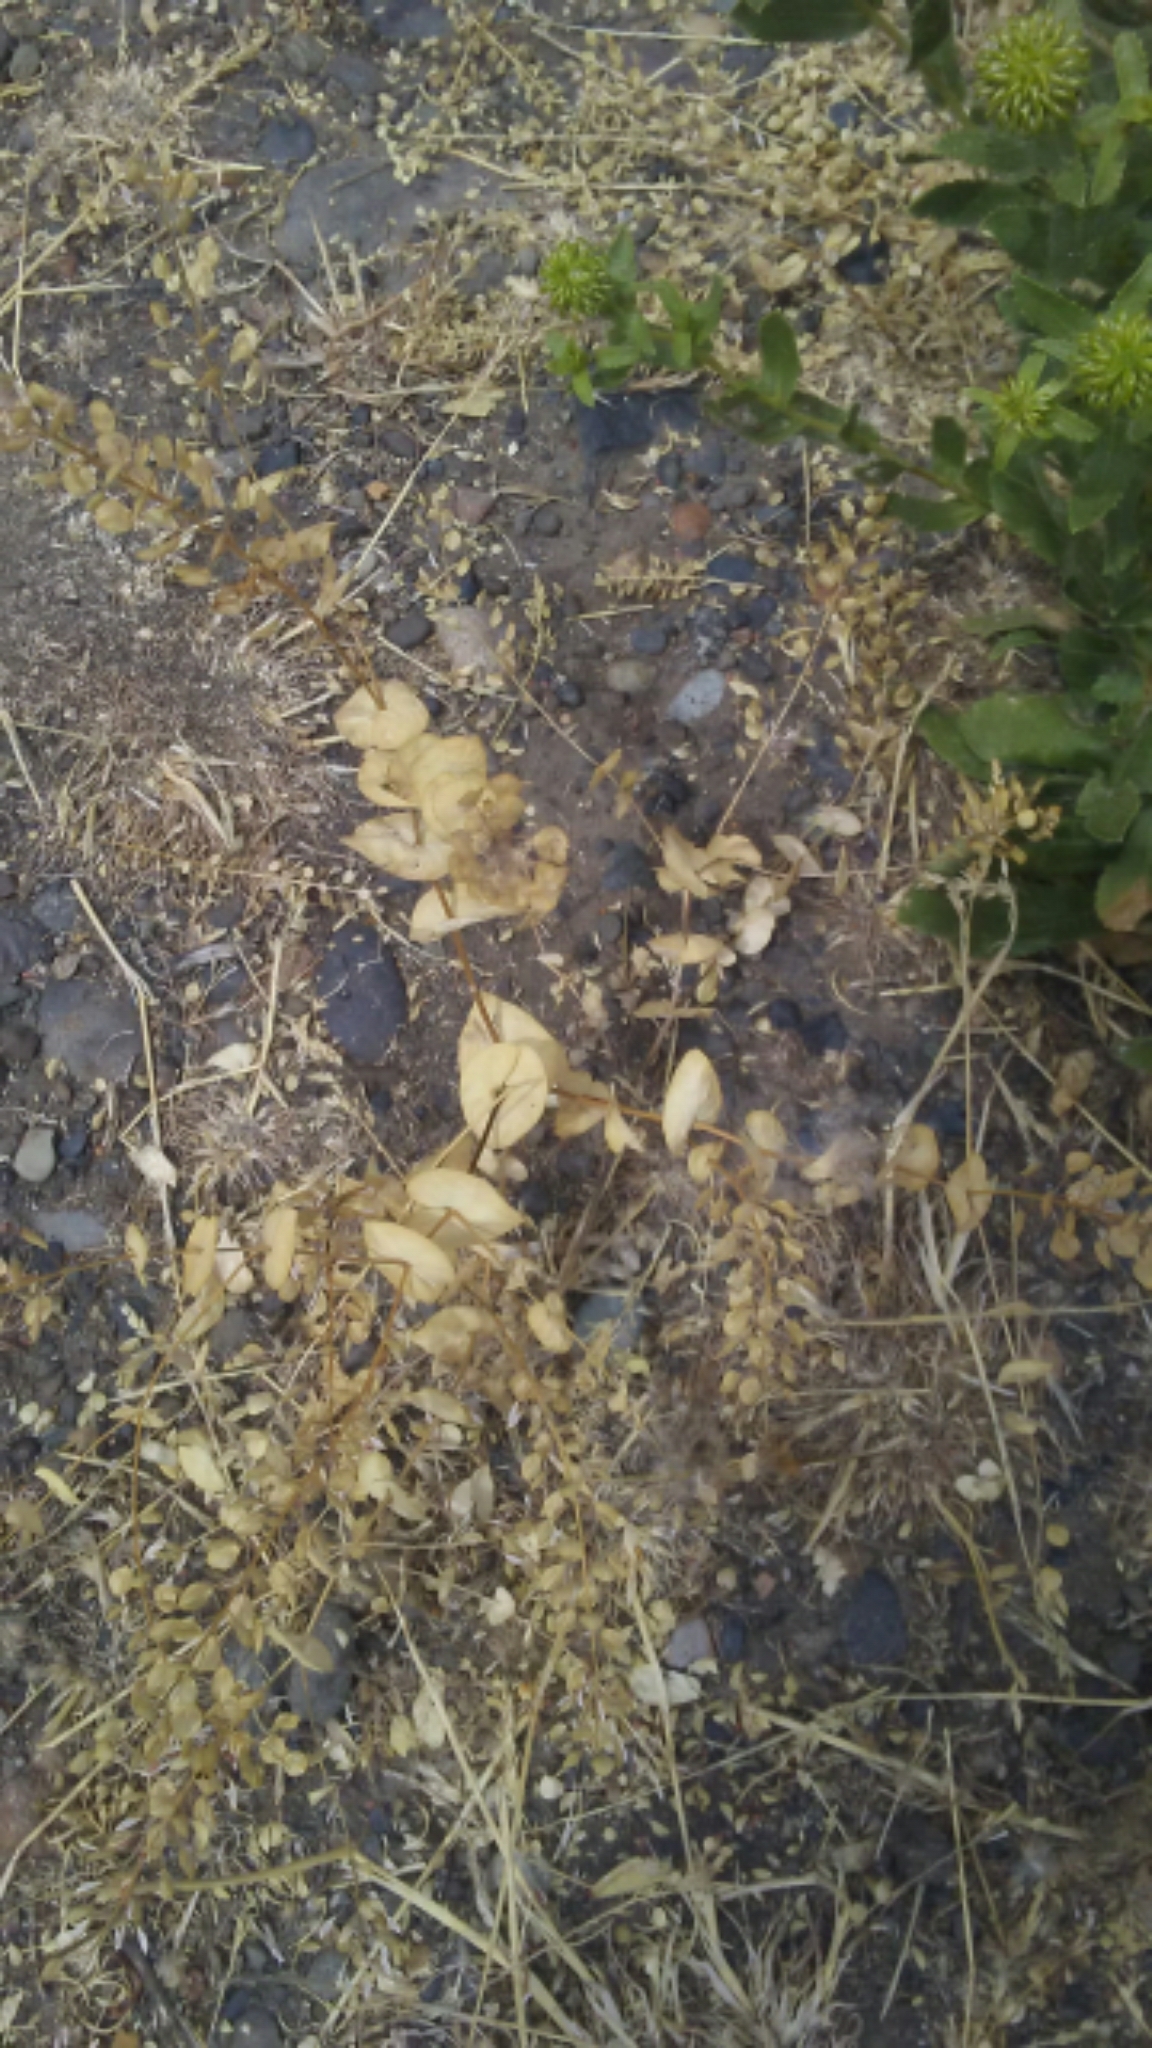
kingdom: Plantae
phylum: Tracheophyta
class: Magnoliopsida
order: Brassicales
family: Brassicaceae
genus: Lepidium
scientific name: Lepidium perfoliatum
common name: Perfoliate pepperwort
